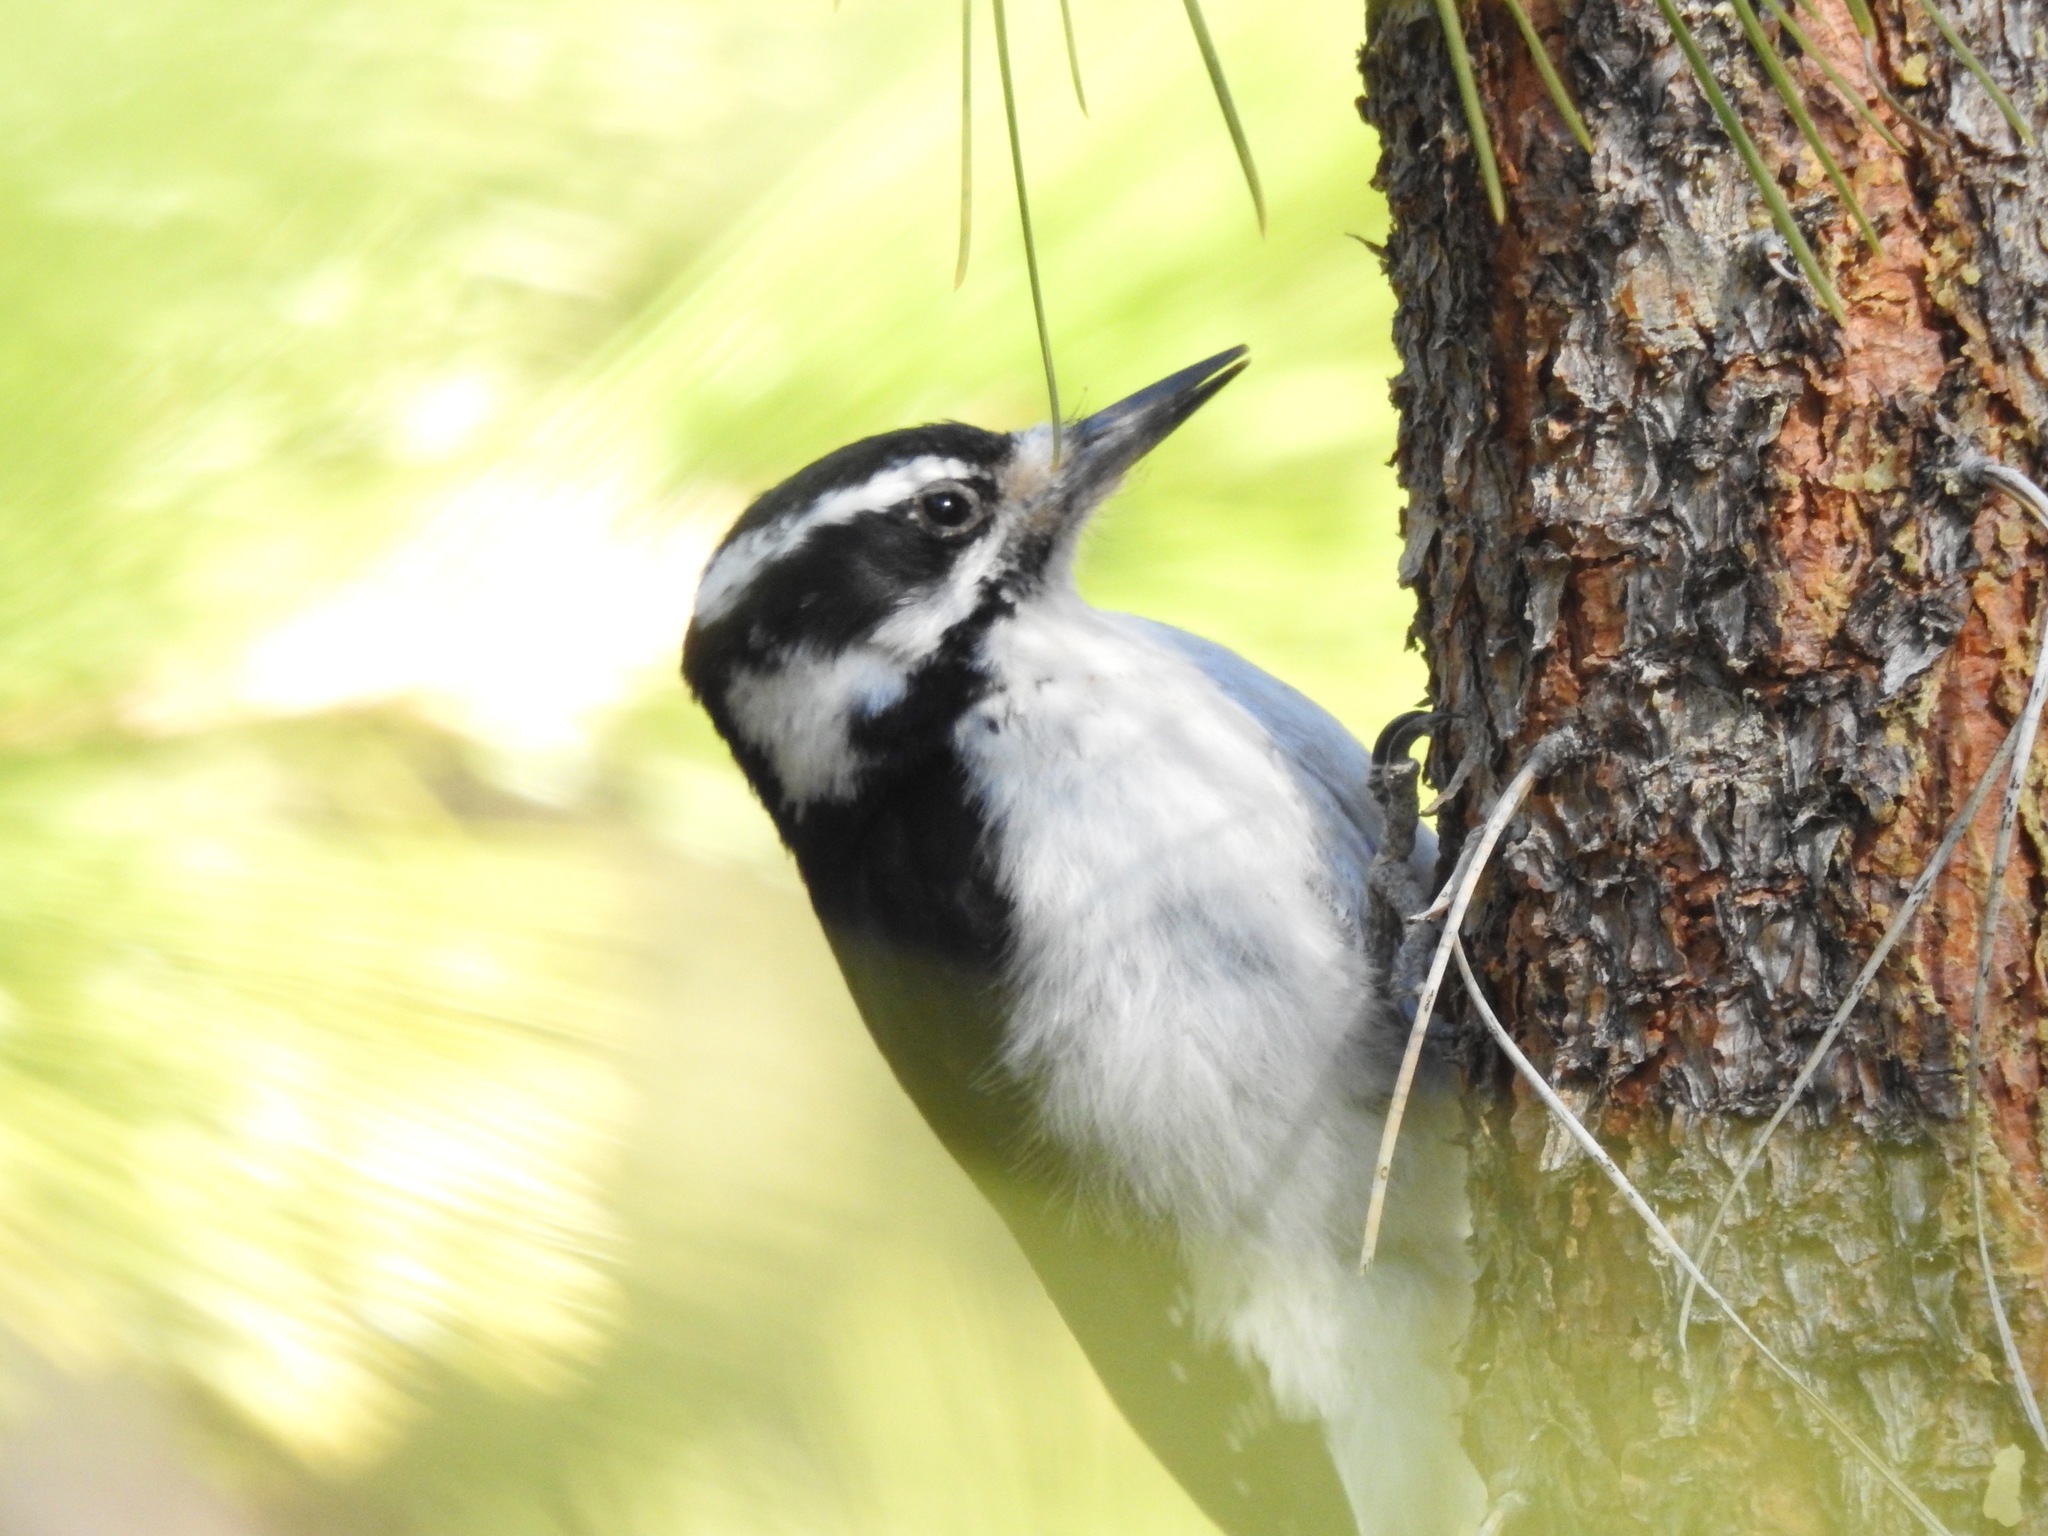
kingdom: Animalia
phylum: Chordata
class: Aves
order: Piciformes
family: Picidae
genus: Leuconotopicus
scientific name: Leuconotopicus villosus
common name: Hairy woodpecker
